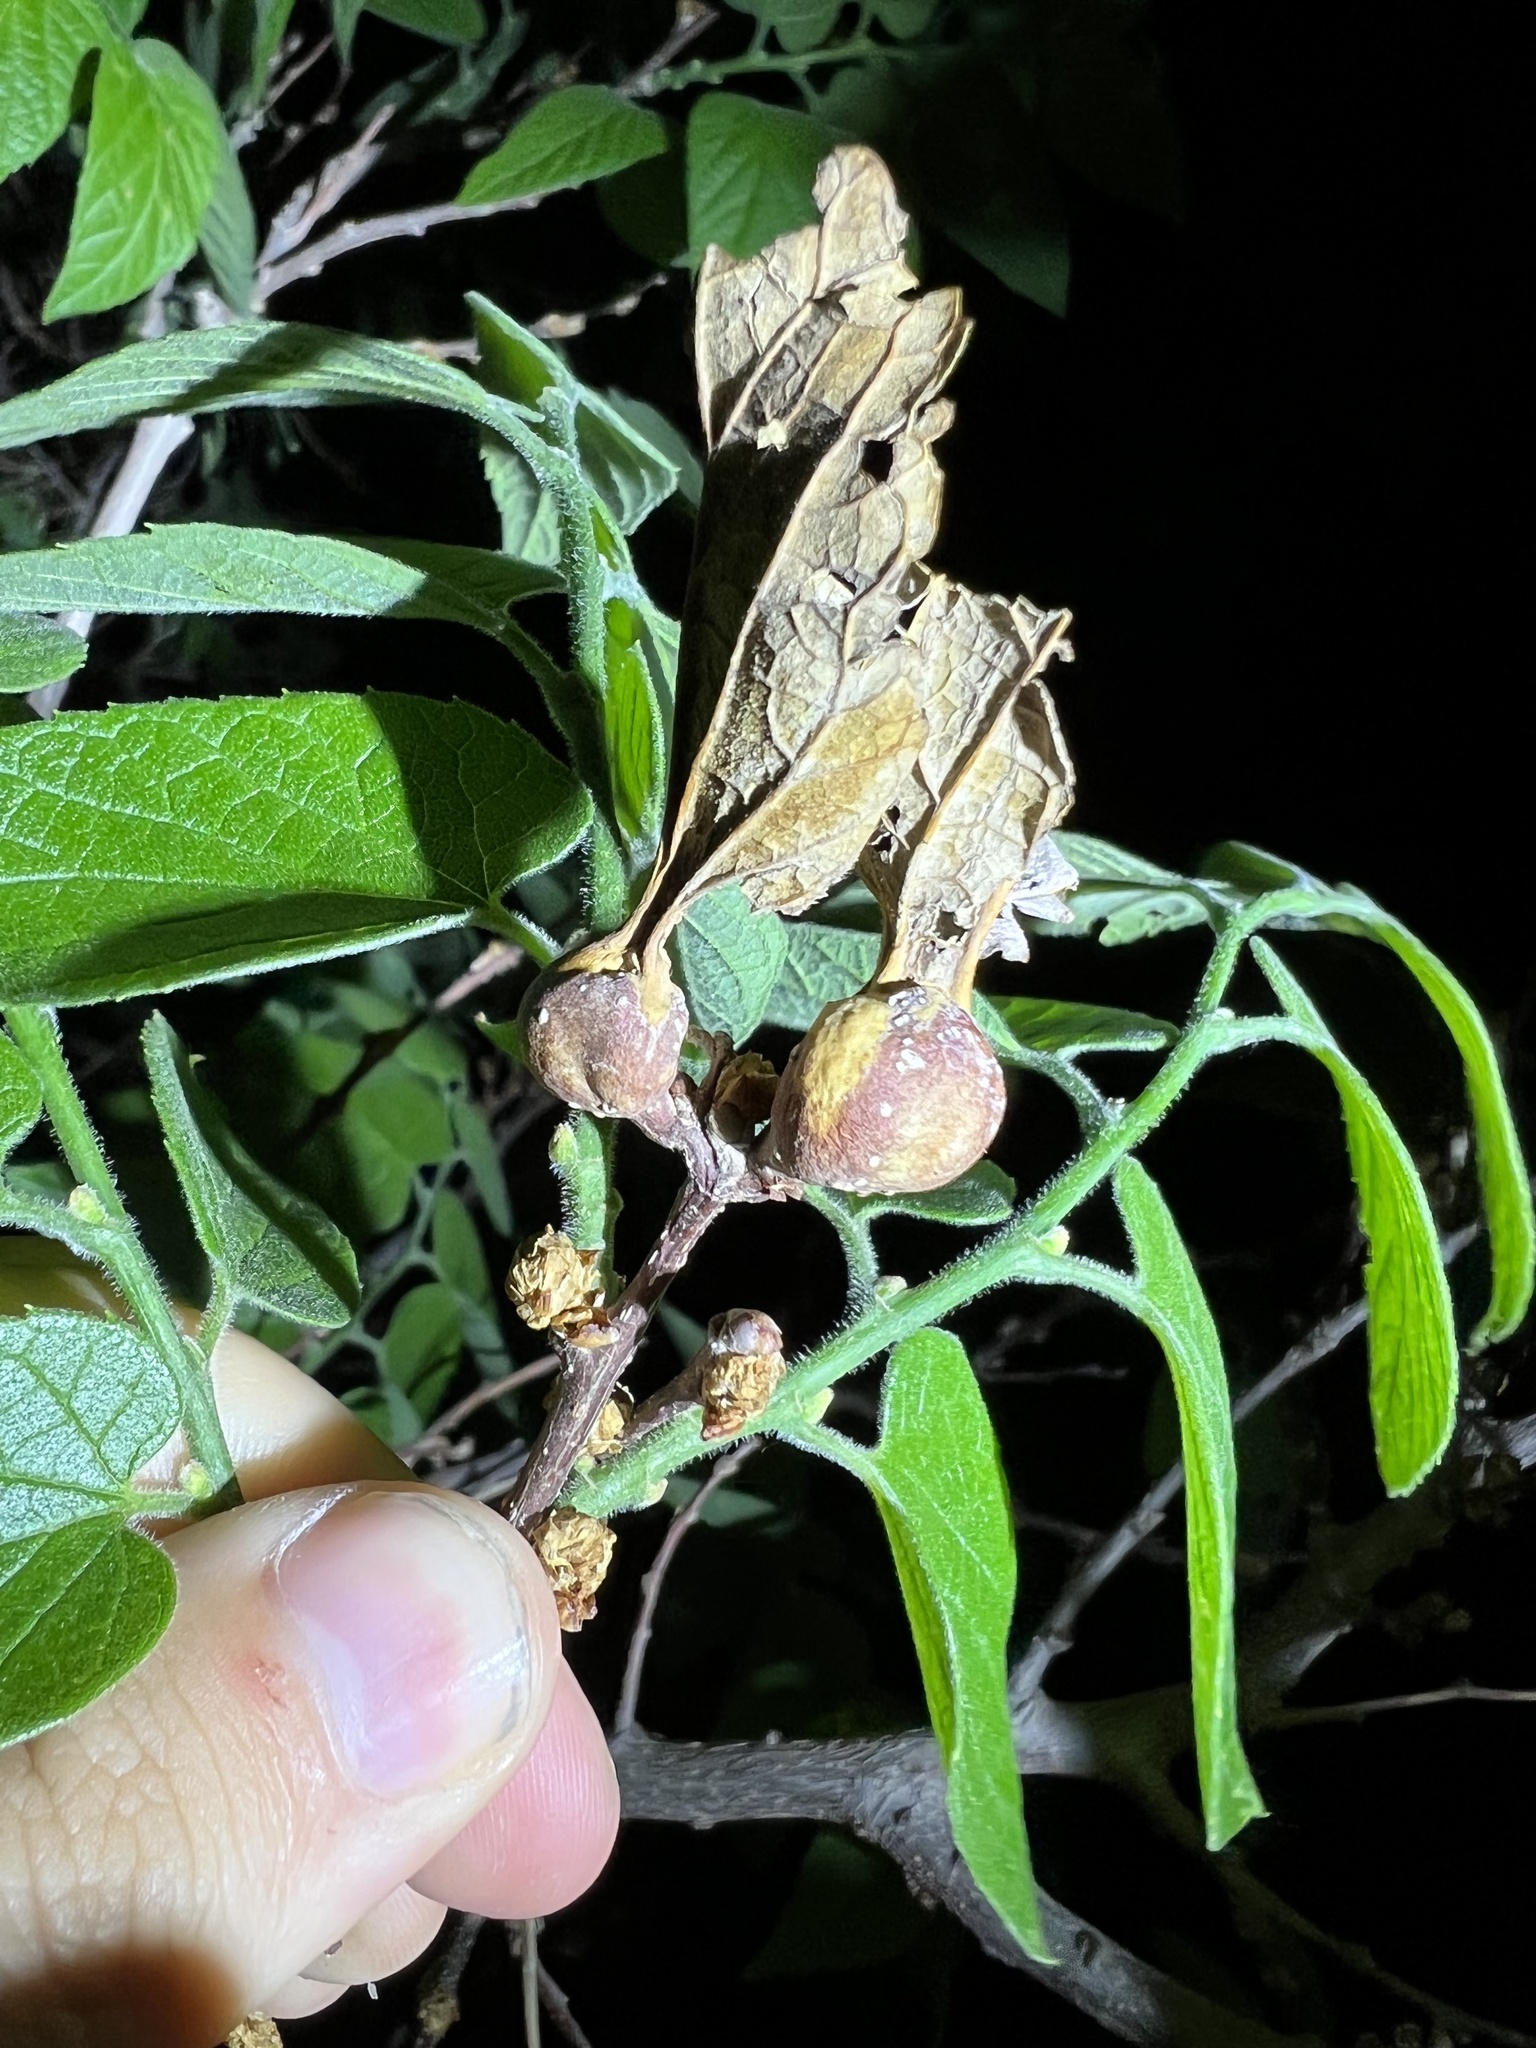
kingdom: Animalia
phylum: Arthropoda
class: Insecta
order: Hemiptera
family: Aphalaridae
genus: Pachypsylla
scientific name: Pachypsylla venusta
